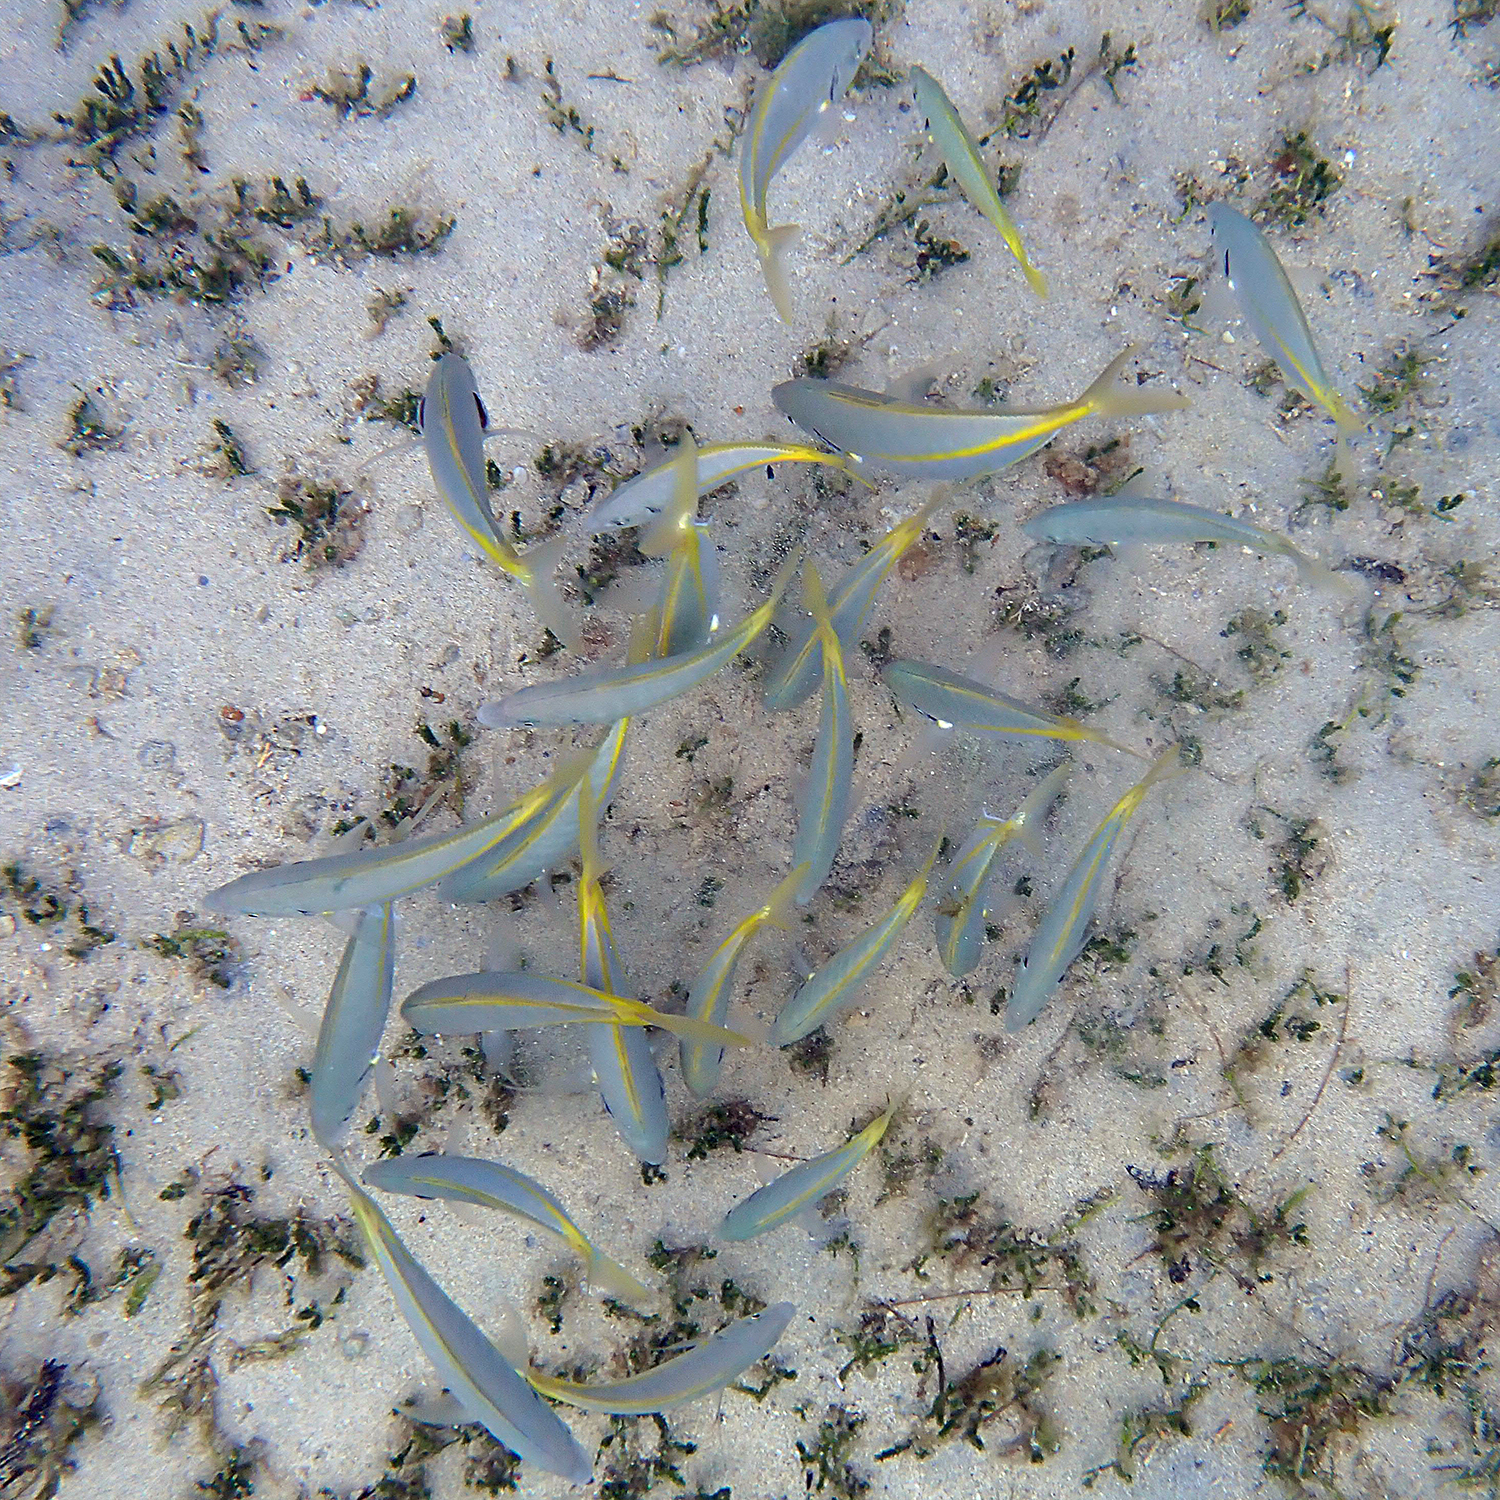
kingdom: Animalia
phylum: Chordata
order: Perciformes
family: Carangidae
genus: Pseudocaranx
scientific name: Pseudocaranx dentex
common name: White trevally
